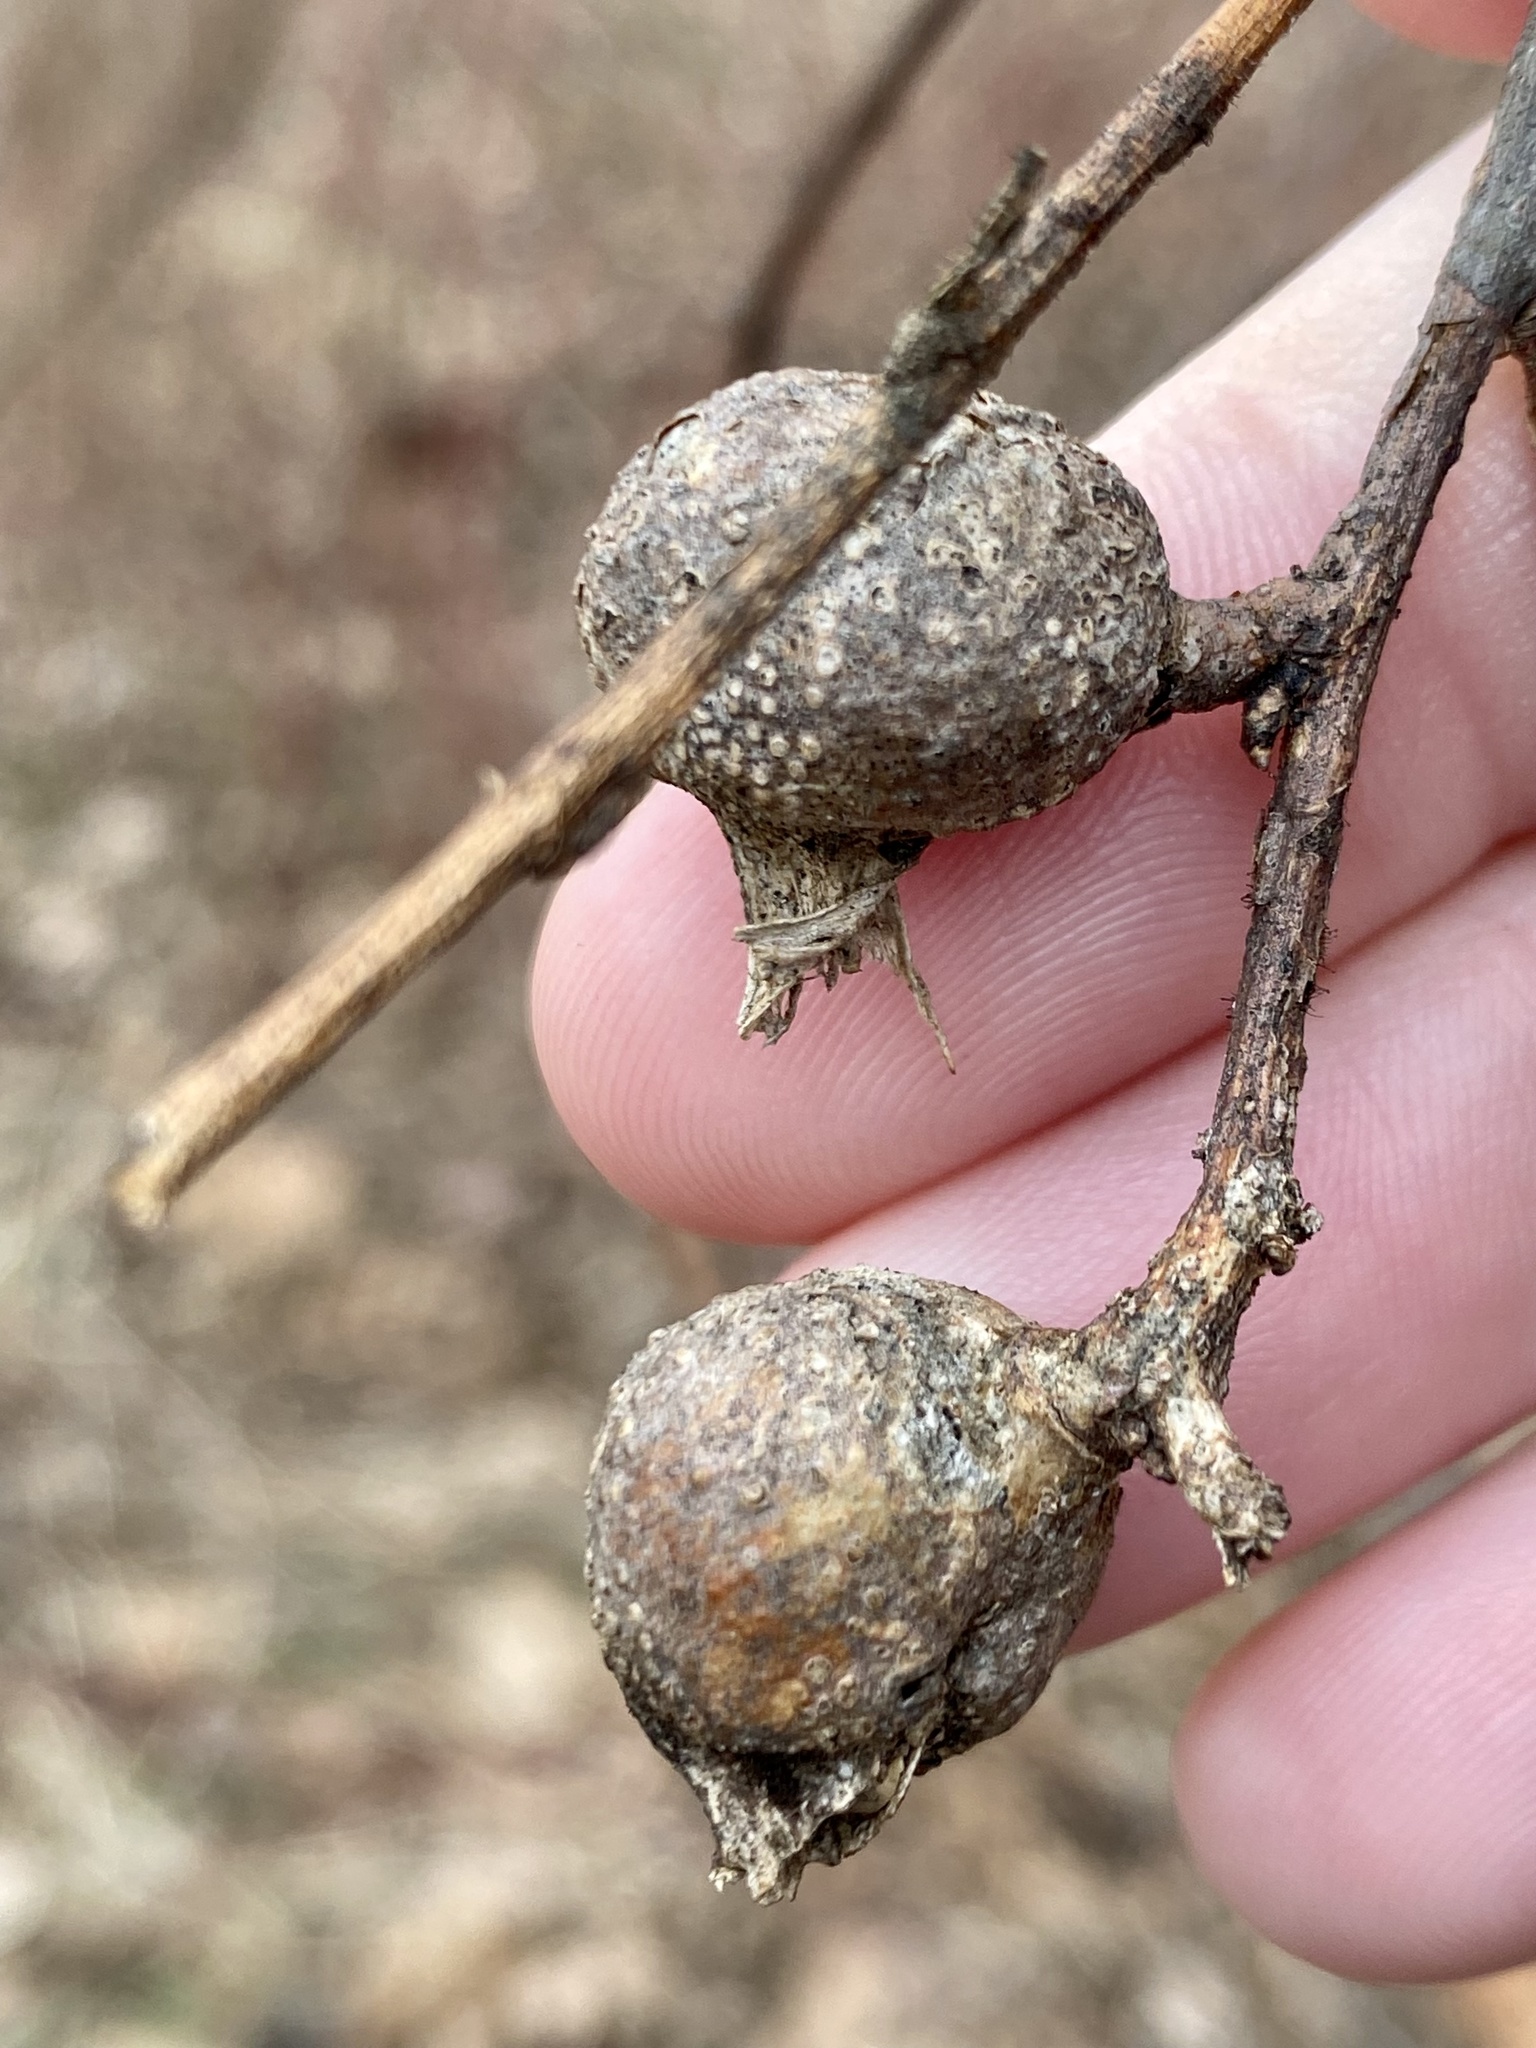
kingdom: Animalia
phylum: Arthropoda
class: Insecta
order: Hemiptera
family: Aphalaridae
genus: Pachypsylla
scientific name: Pachypsylla venusta
